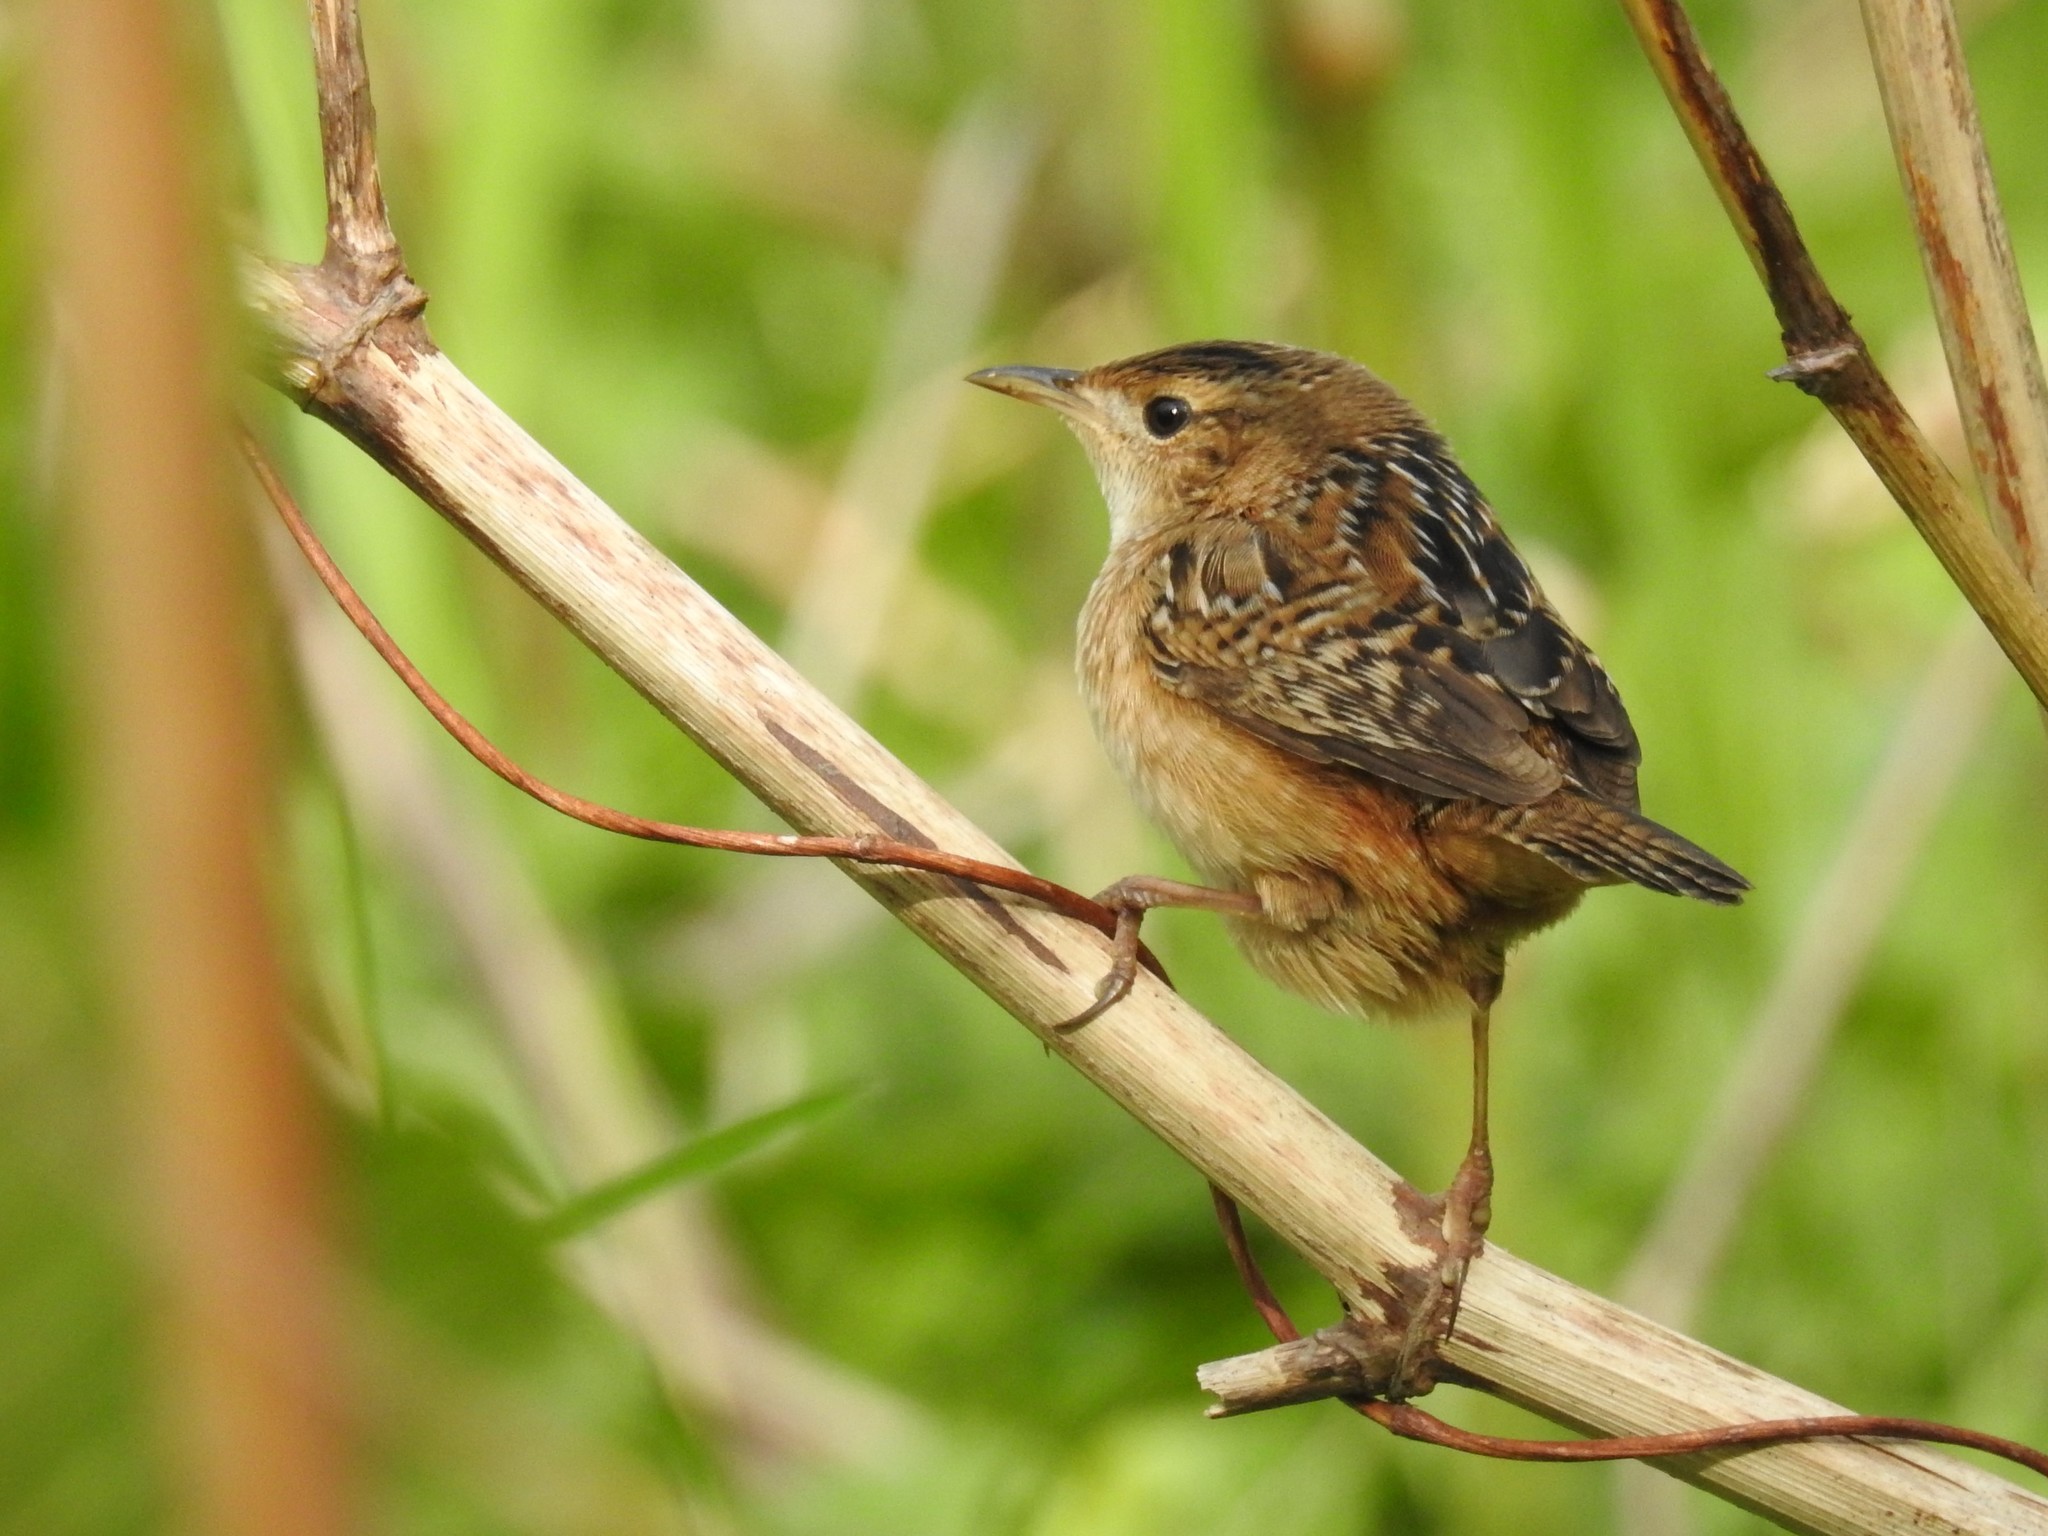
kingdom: Animalia
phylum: Chordata
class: Aves
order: Passeriformes
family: Troglodytidae
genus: Cistothorus
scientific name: Cistothorus platensis
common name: Sedge wren
